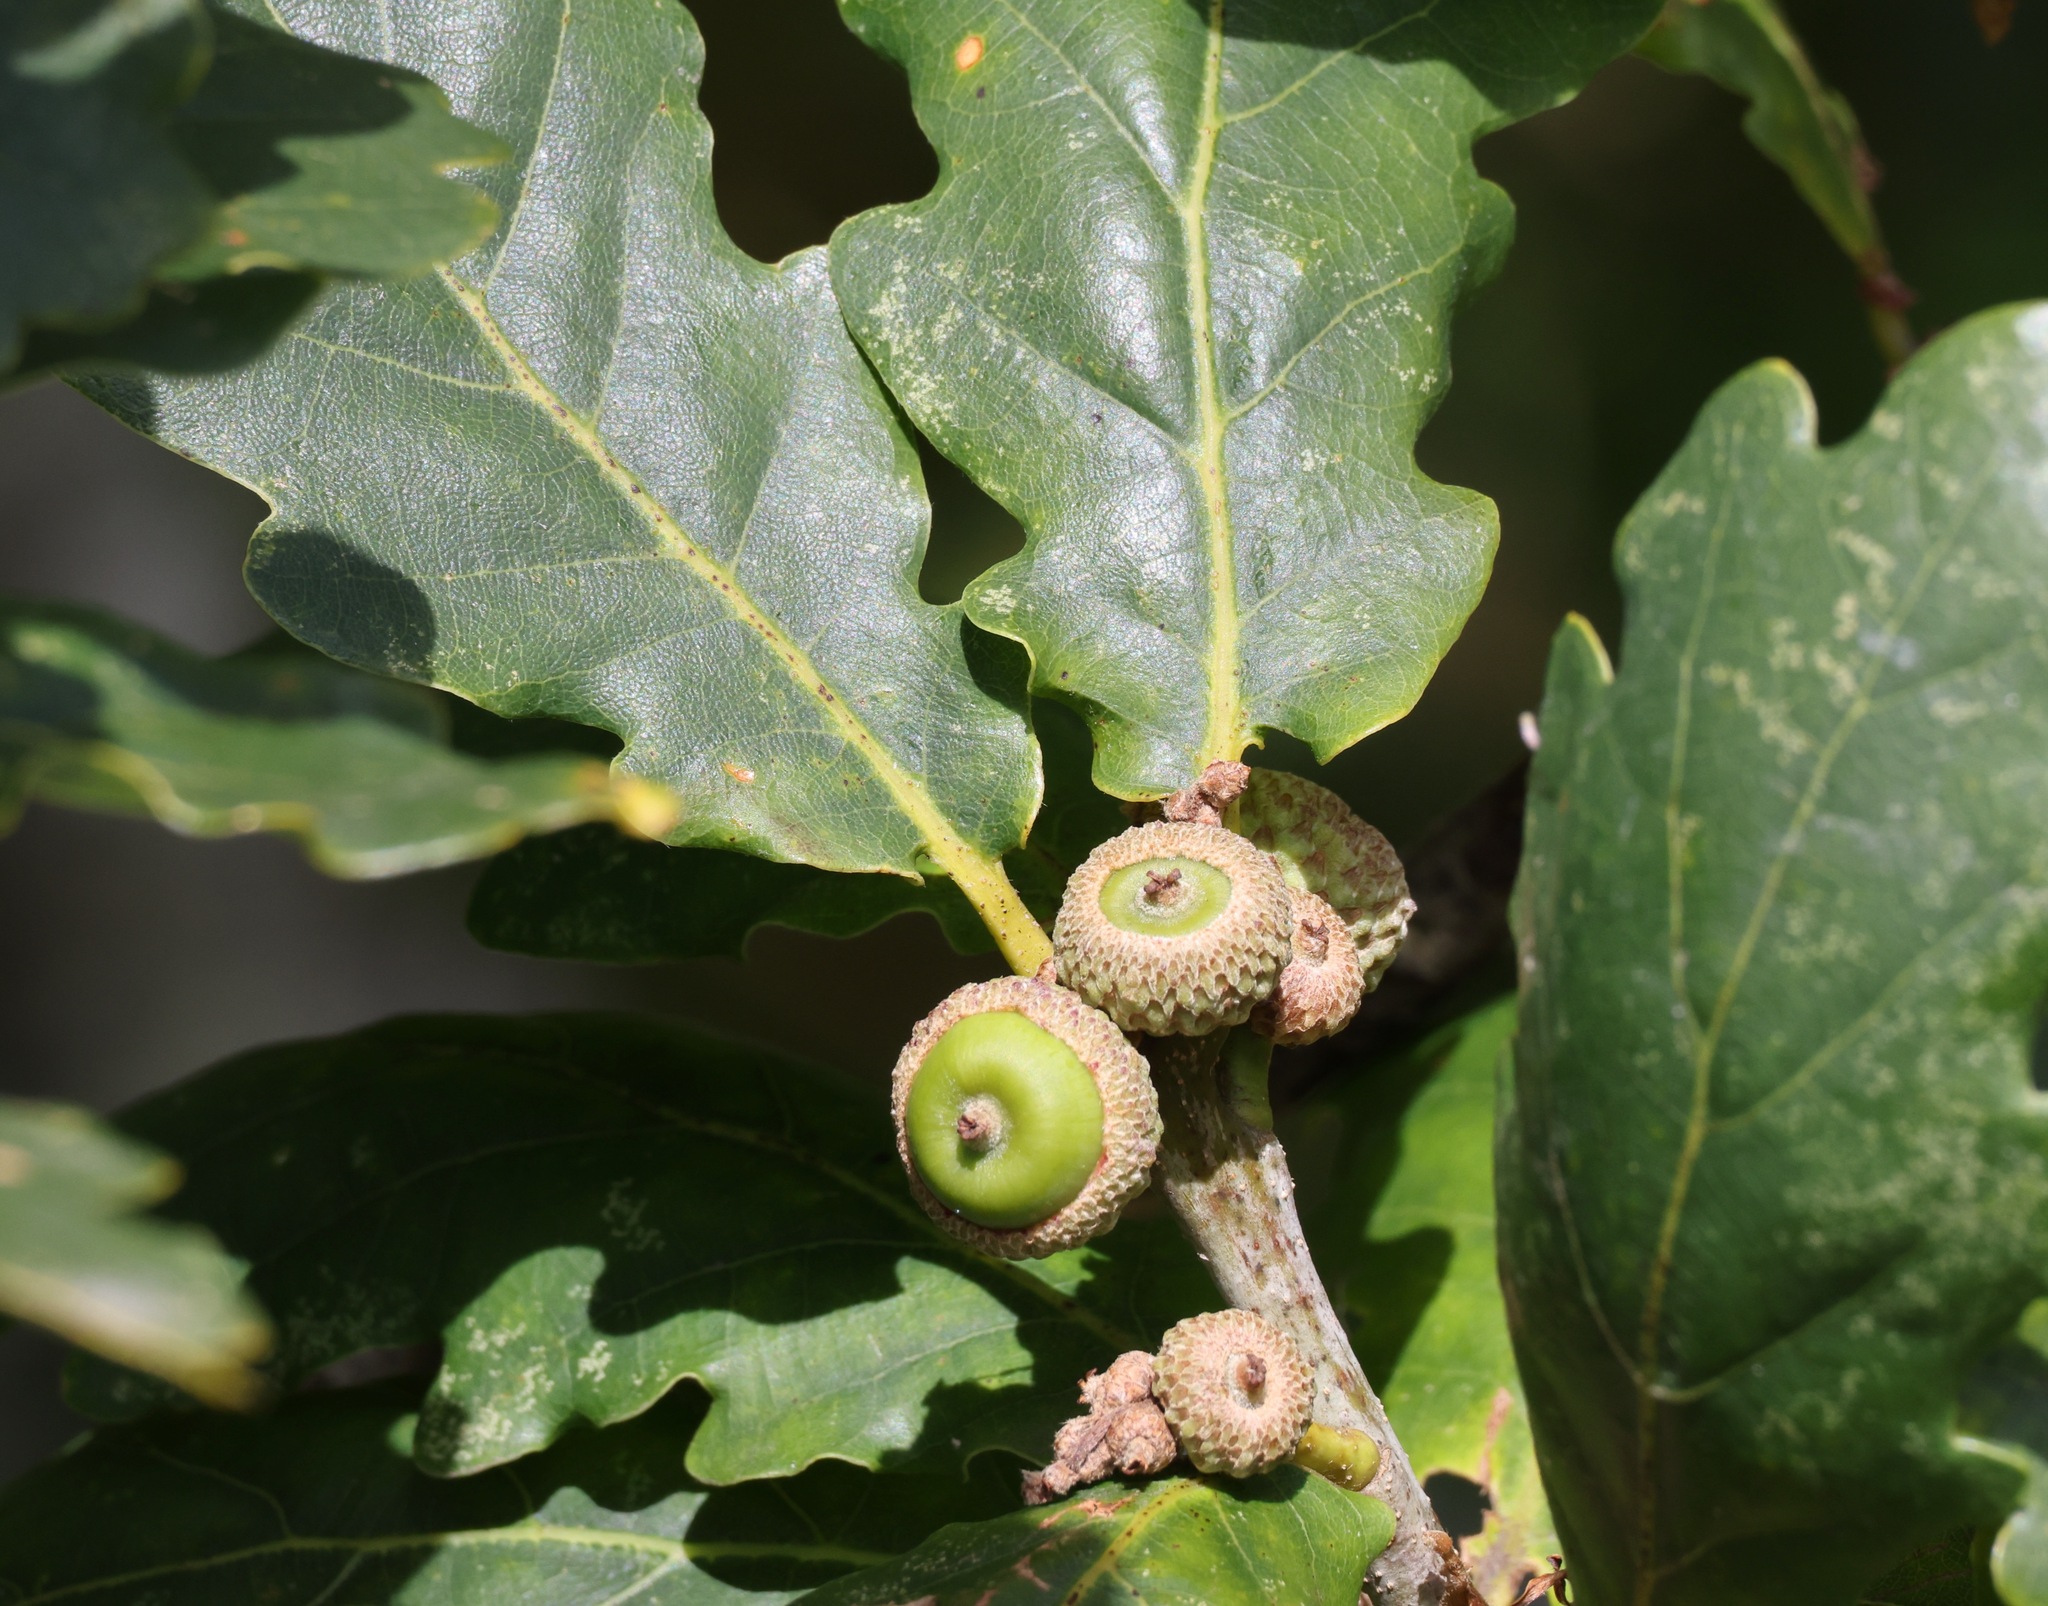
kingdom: Plantae
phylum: Tracheophyta
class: Magnoliopsida
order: Fagales
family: Fagaceae
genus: Quercus
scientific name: Quercus petraea
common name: Sessile oak
